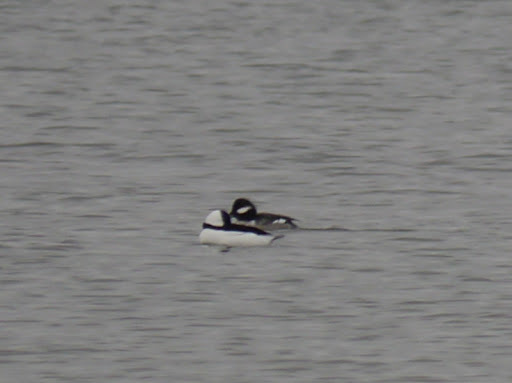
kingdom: Animalia
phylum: Chordata
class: Aves
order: Anseriformes
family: Anatidae
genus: Bucephala
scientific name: Bucephala albeola
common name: Bufflehead
